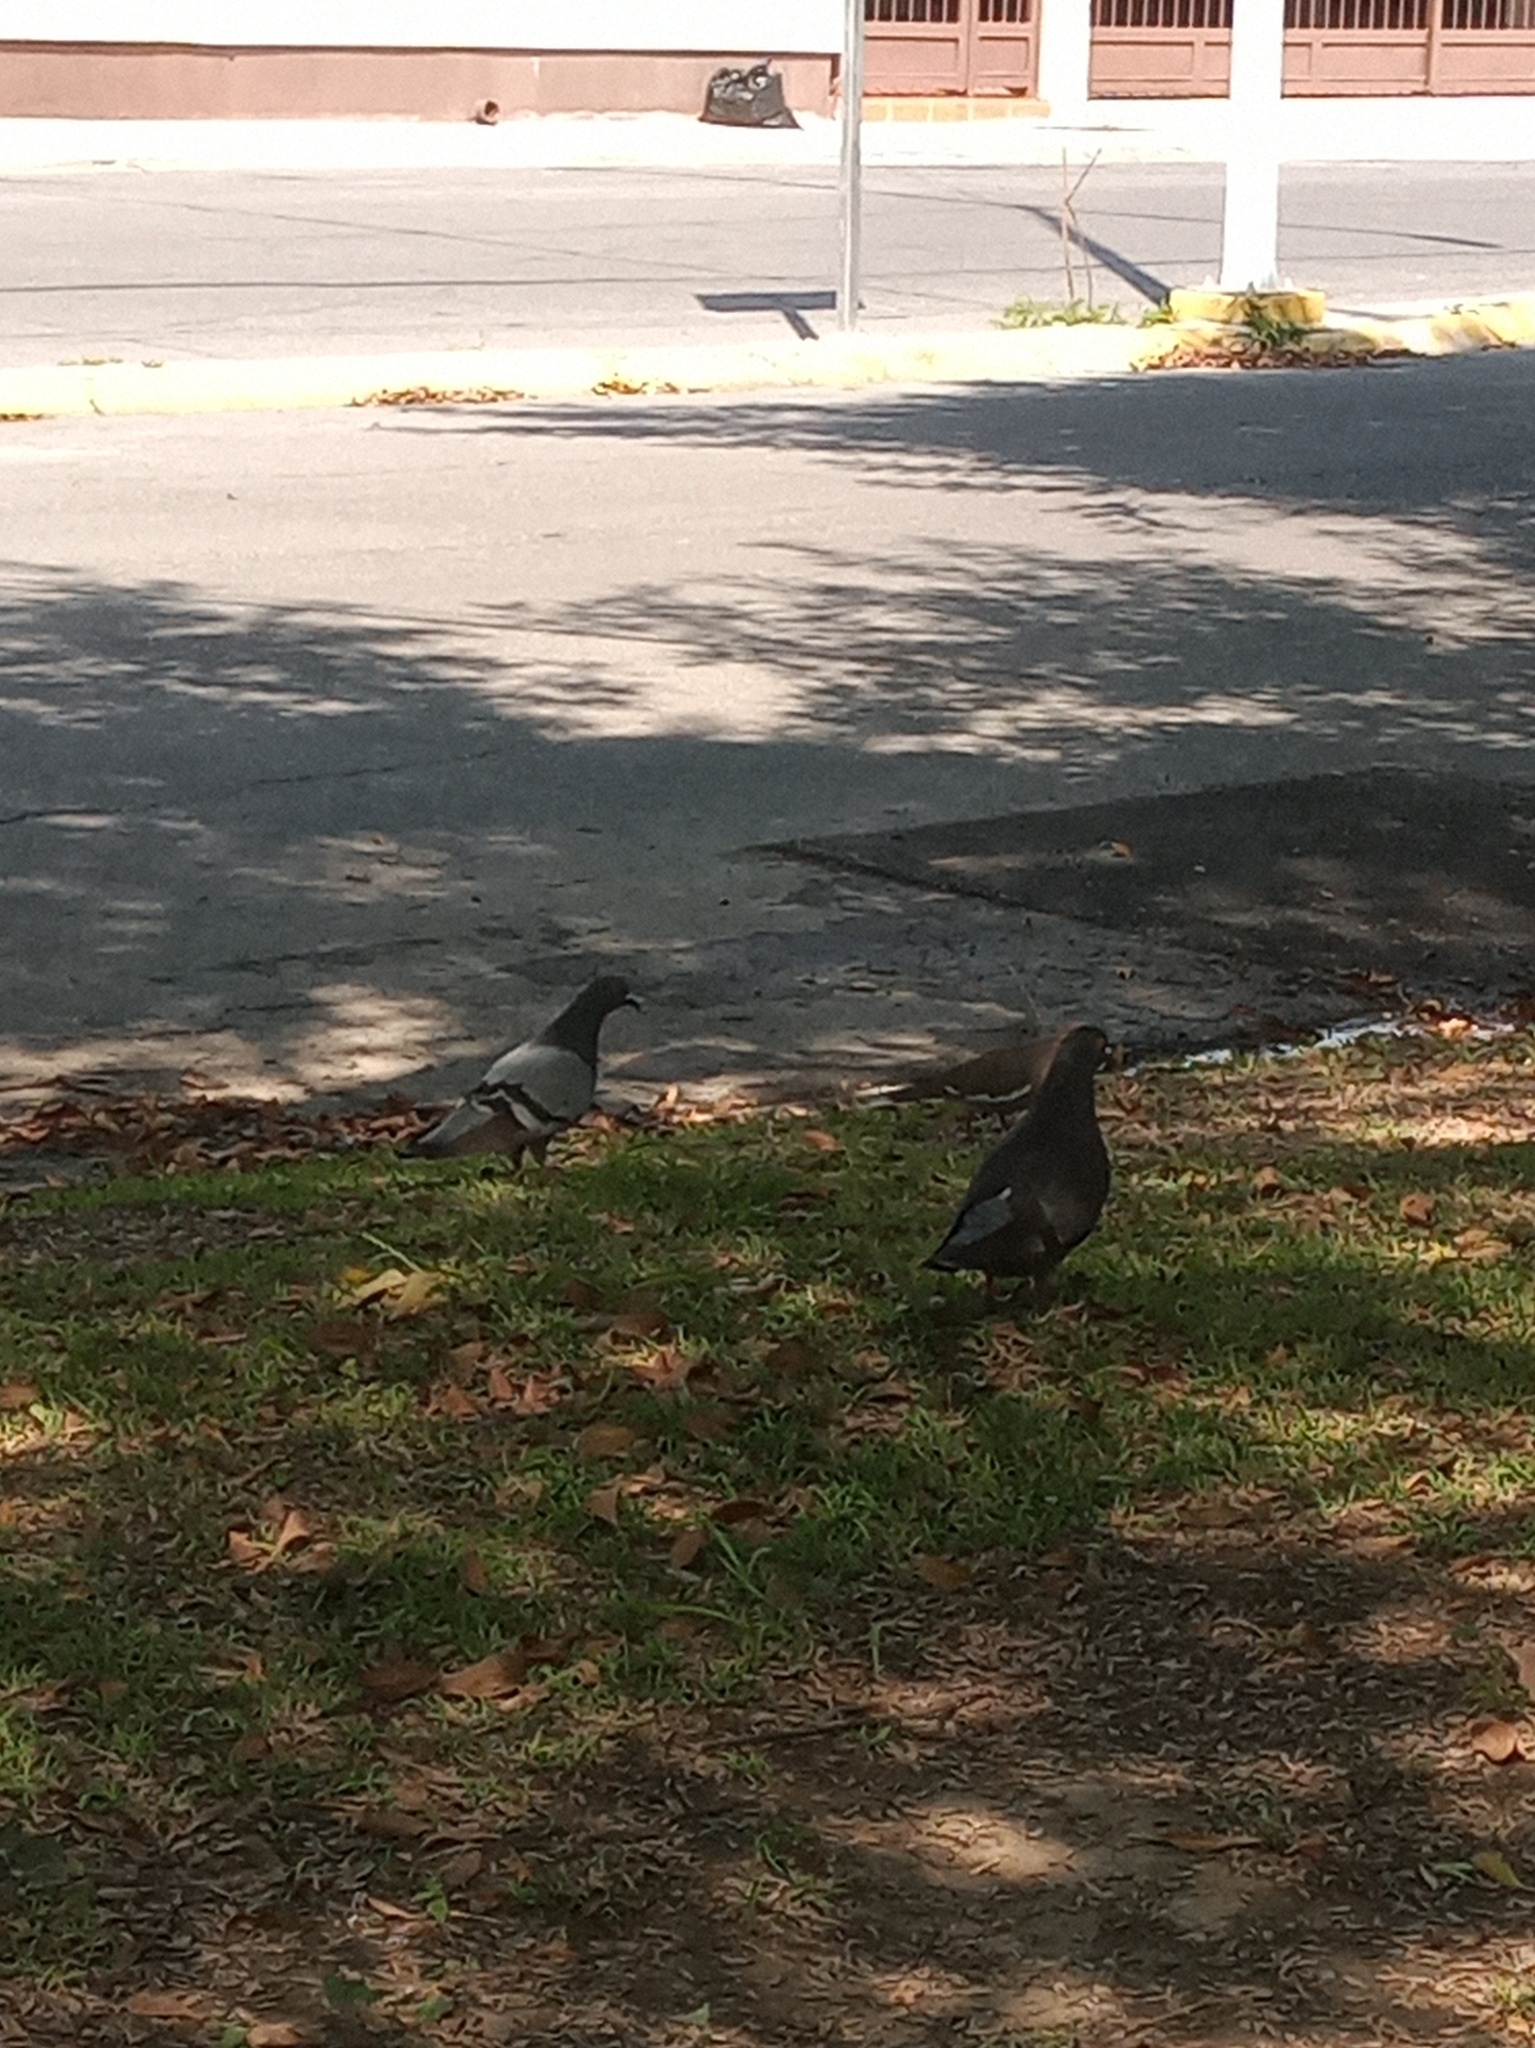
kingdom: Animalia
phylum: Chordata
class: Aves
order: Columbiformes
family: Columbidae
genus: Columba
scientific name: Columba livia
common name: Rock pigeon
